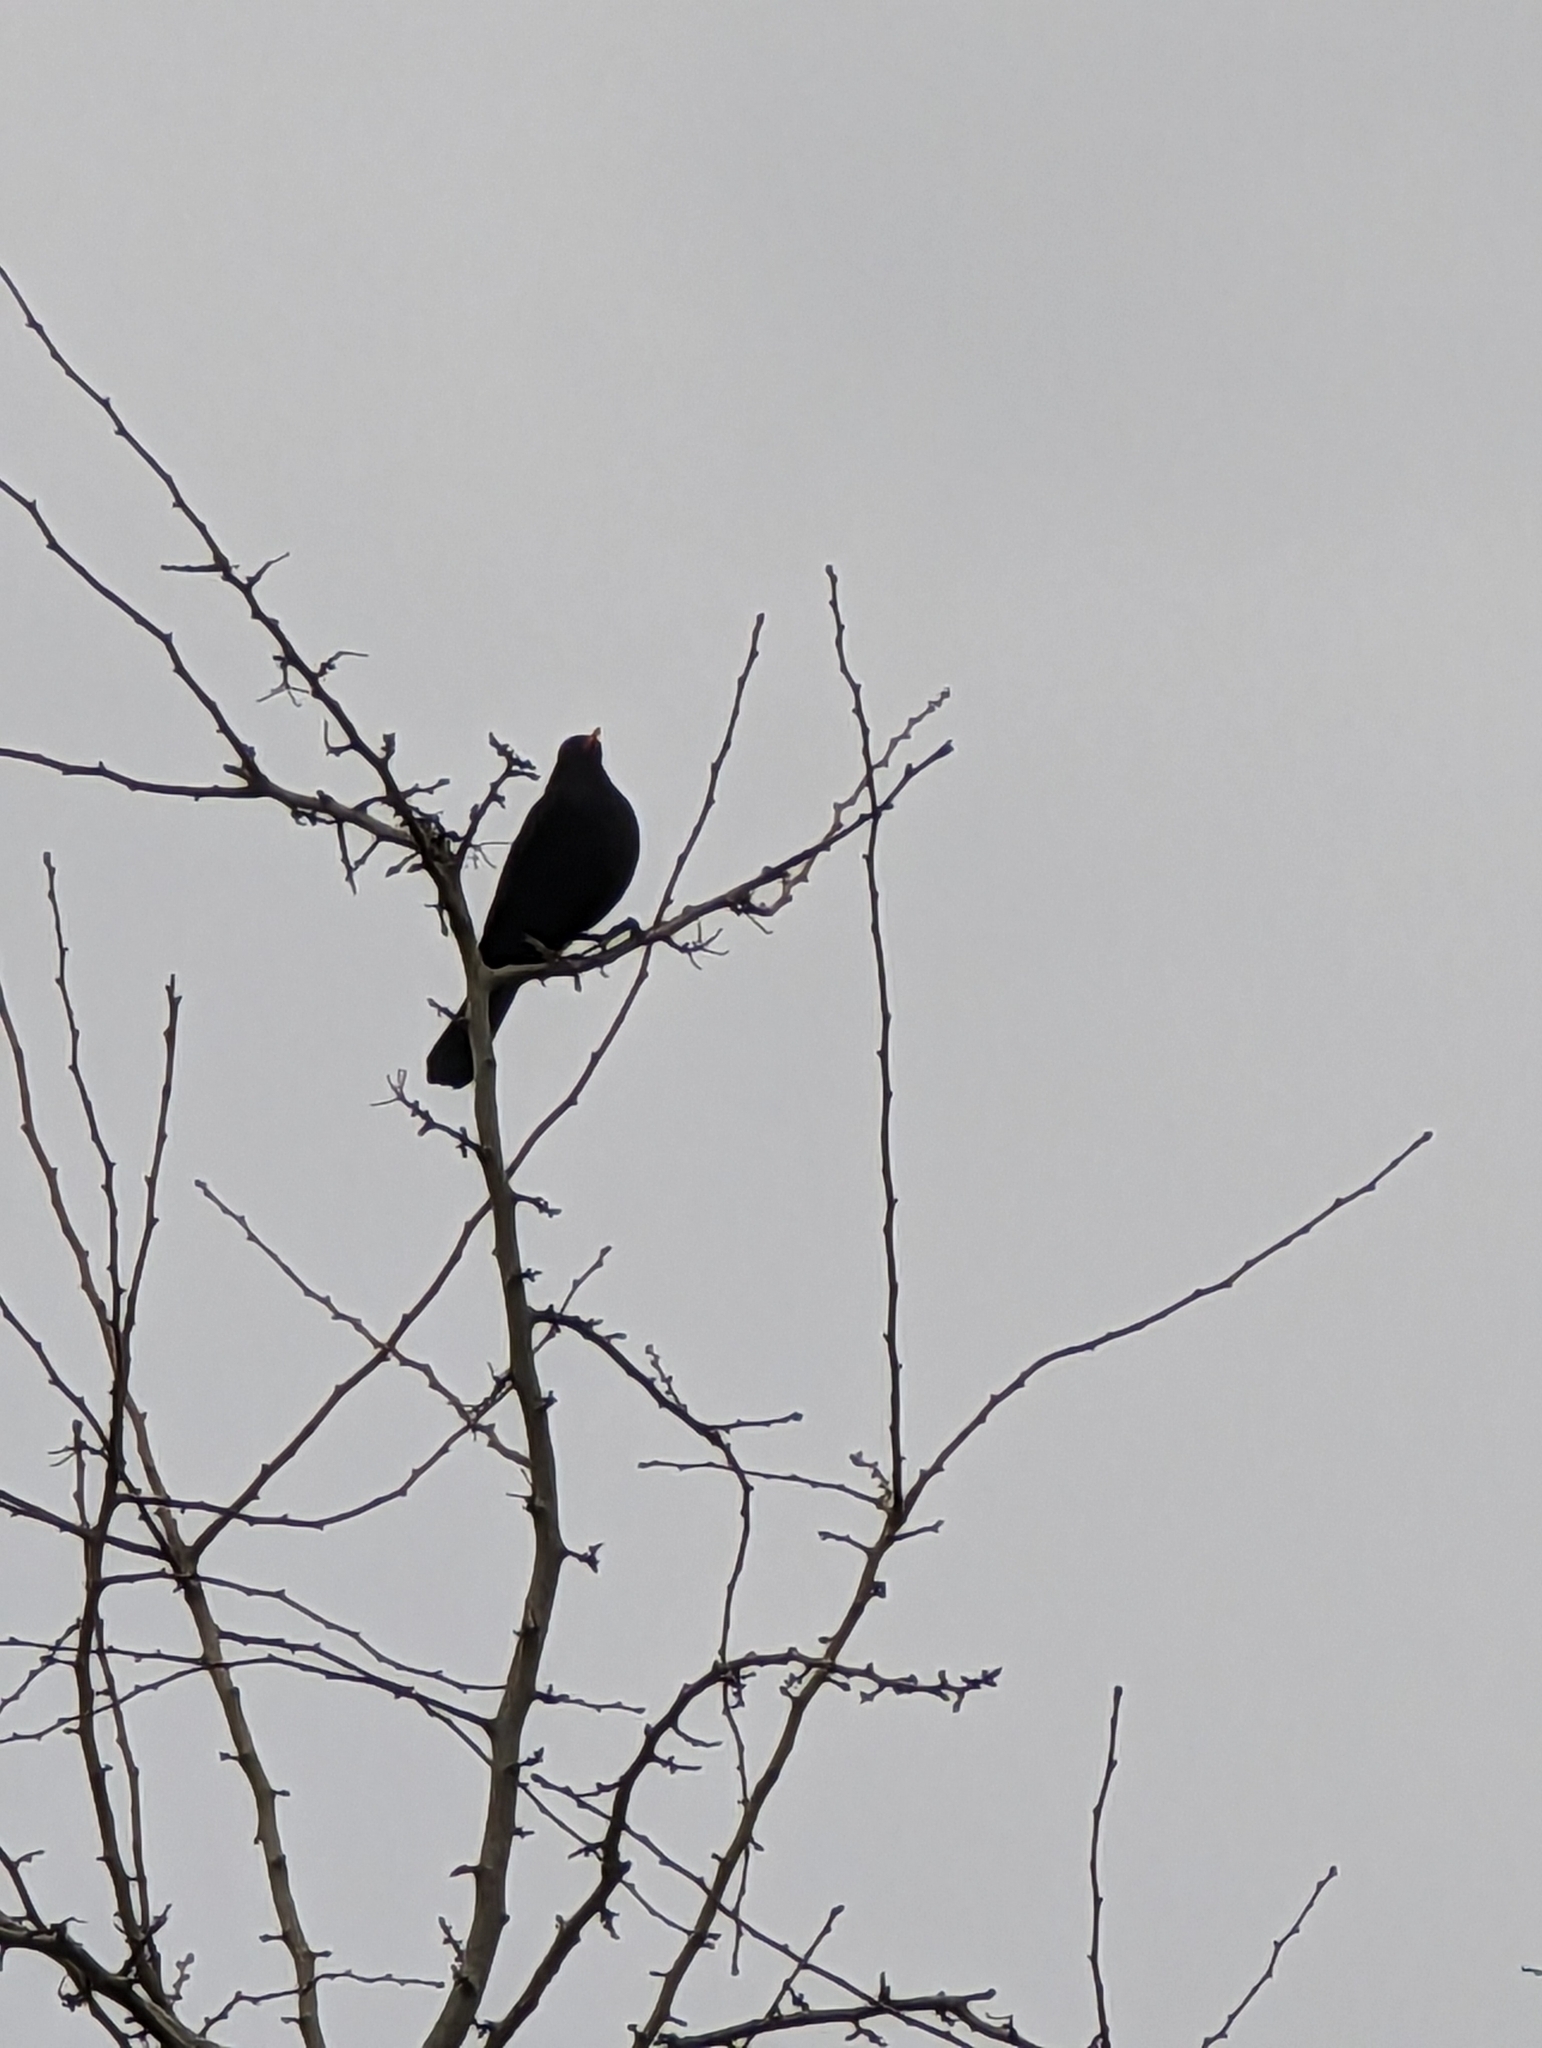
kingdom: Animalia
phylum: Chordata
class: Aves
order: Passeriformes
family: Turdidae
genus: Turdus
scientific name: Turdus merula
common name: Common blackbird
